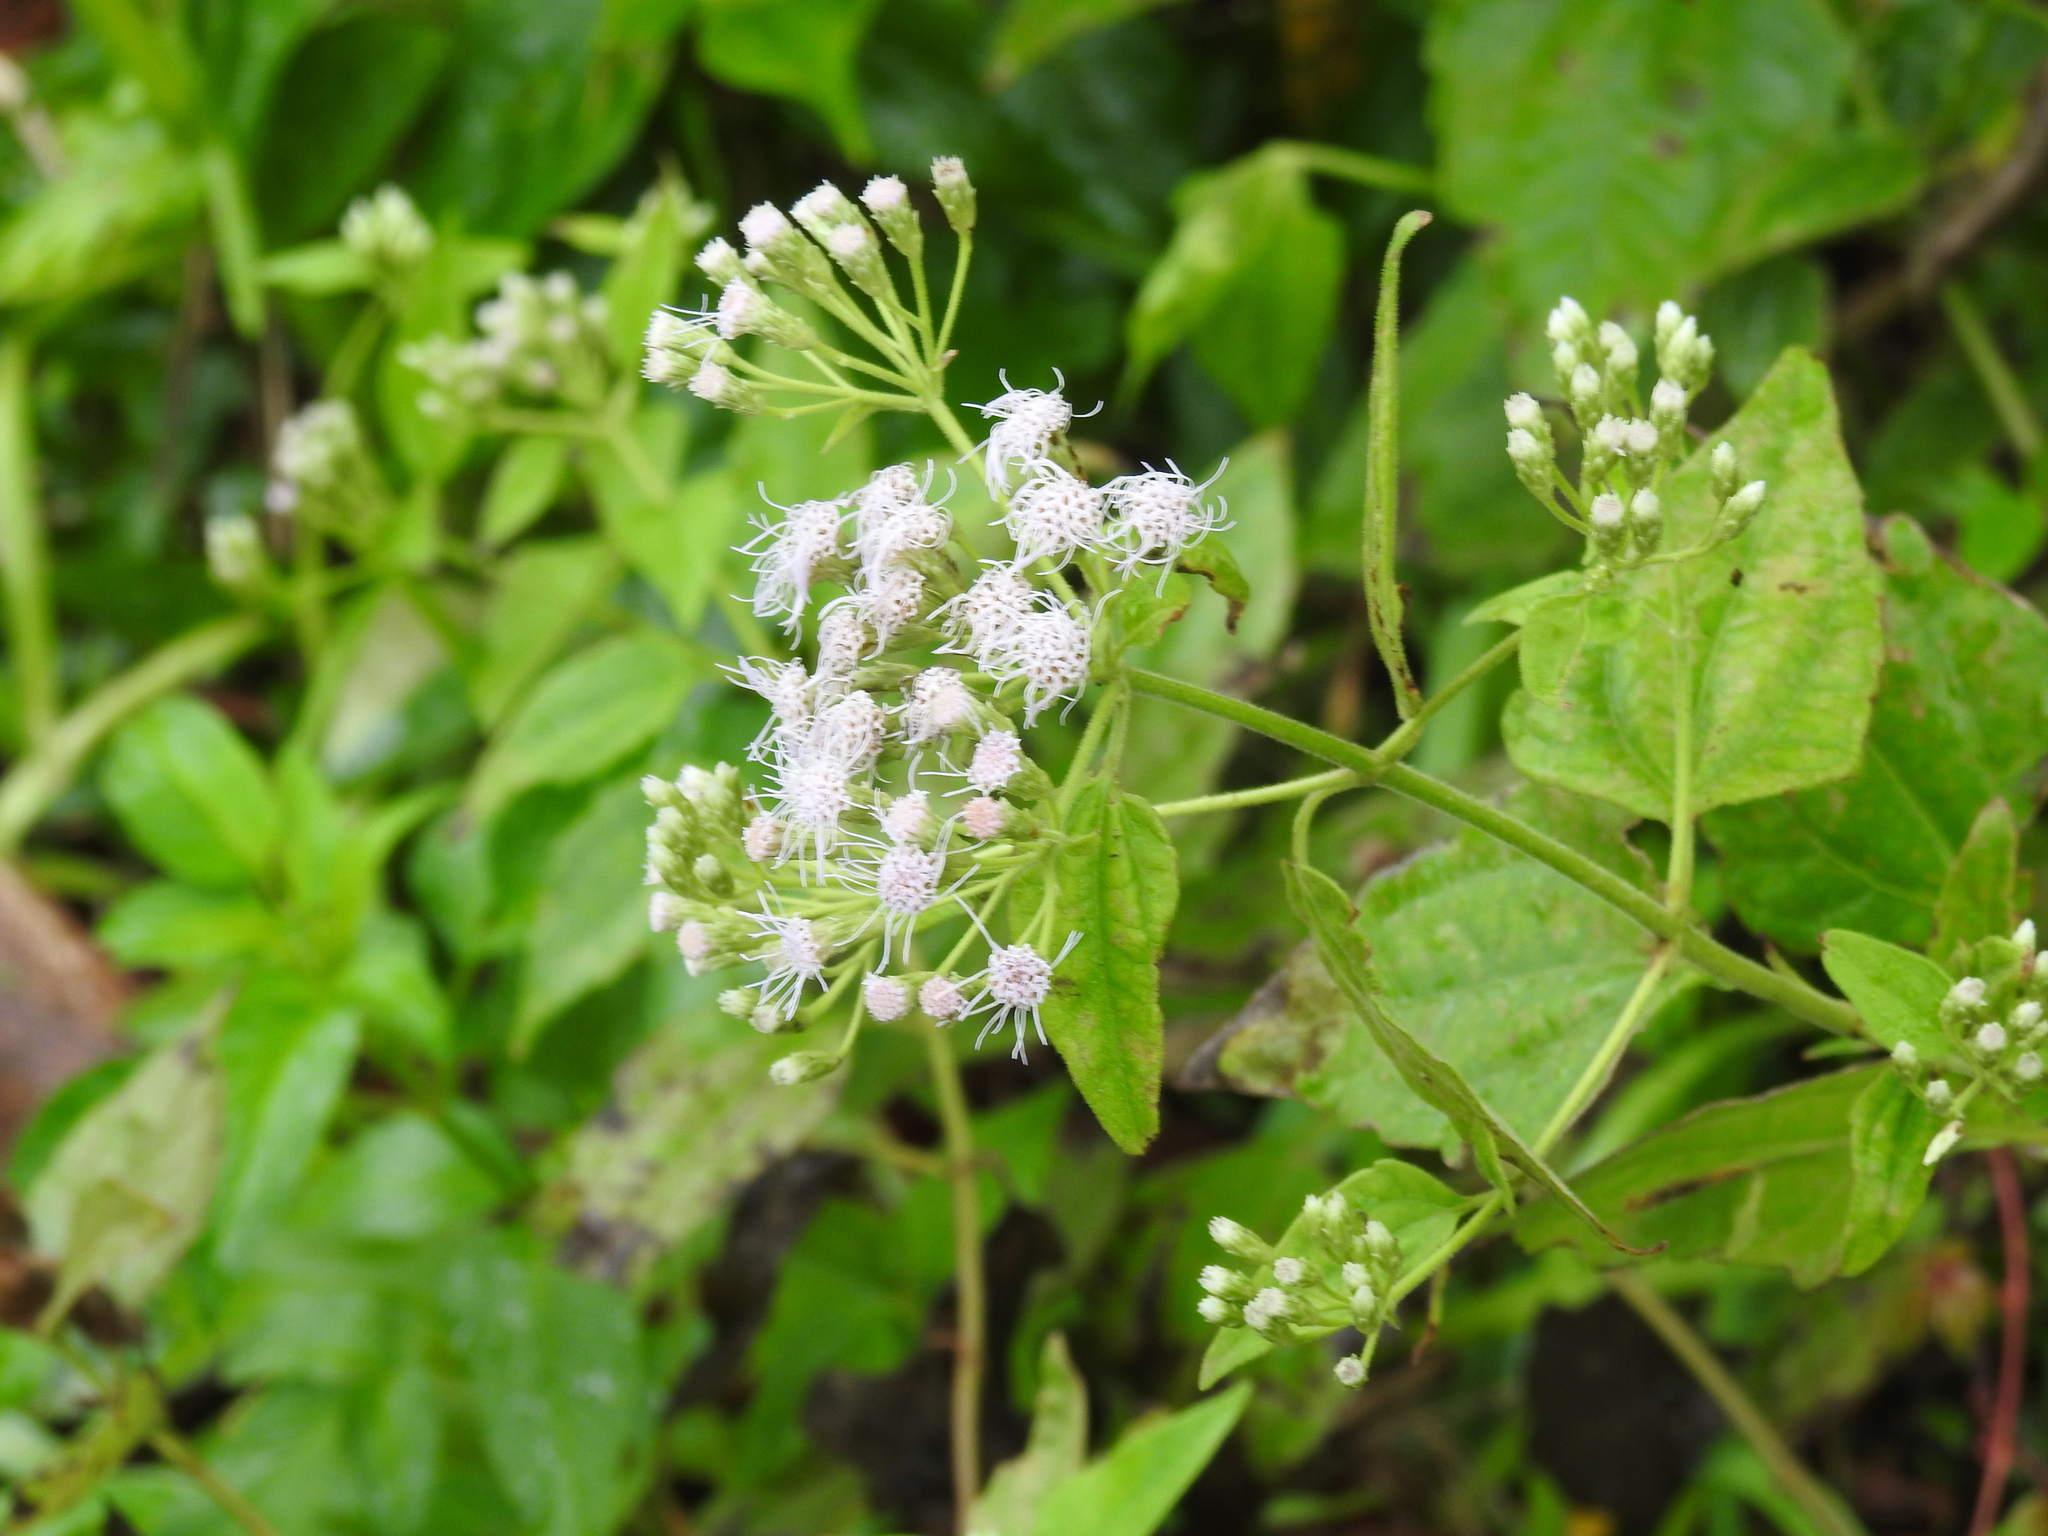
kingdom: Plantae
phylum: Tracheophyta
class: Magnoliopsida
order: Asterales
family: Asteraceae
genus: Chromolaena
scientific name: Chromolaena odorata
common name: Siamweed
